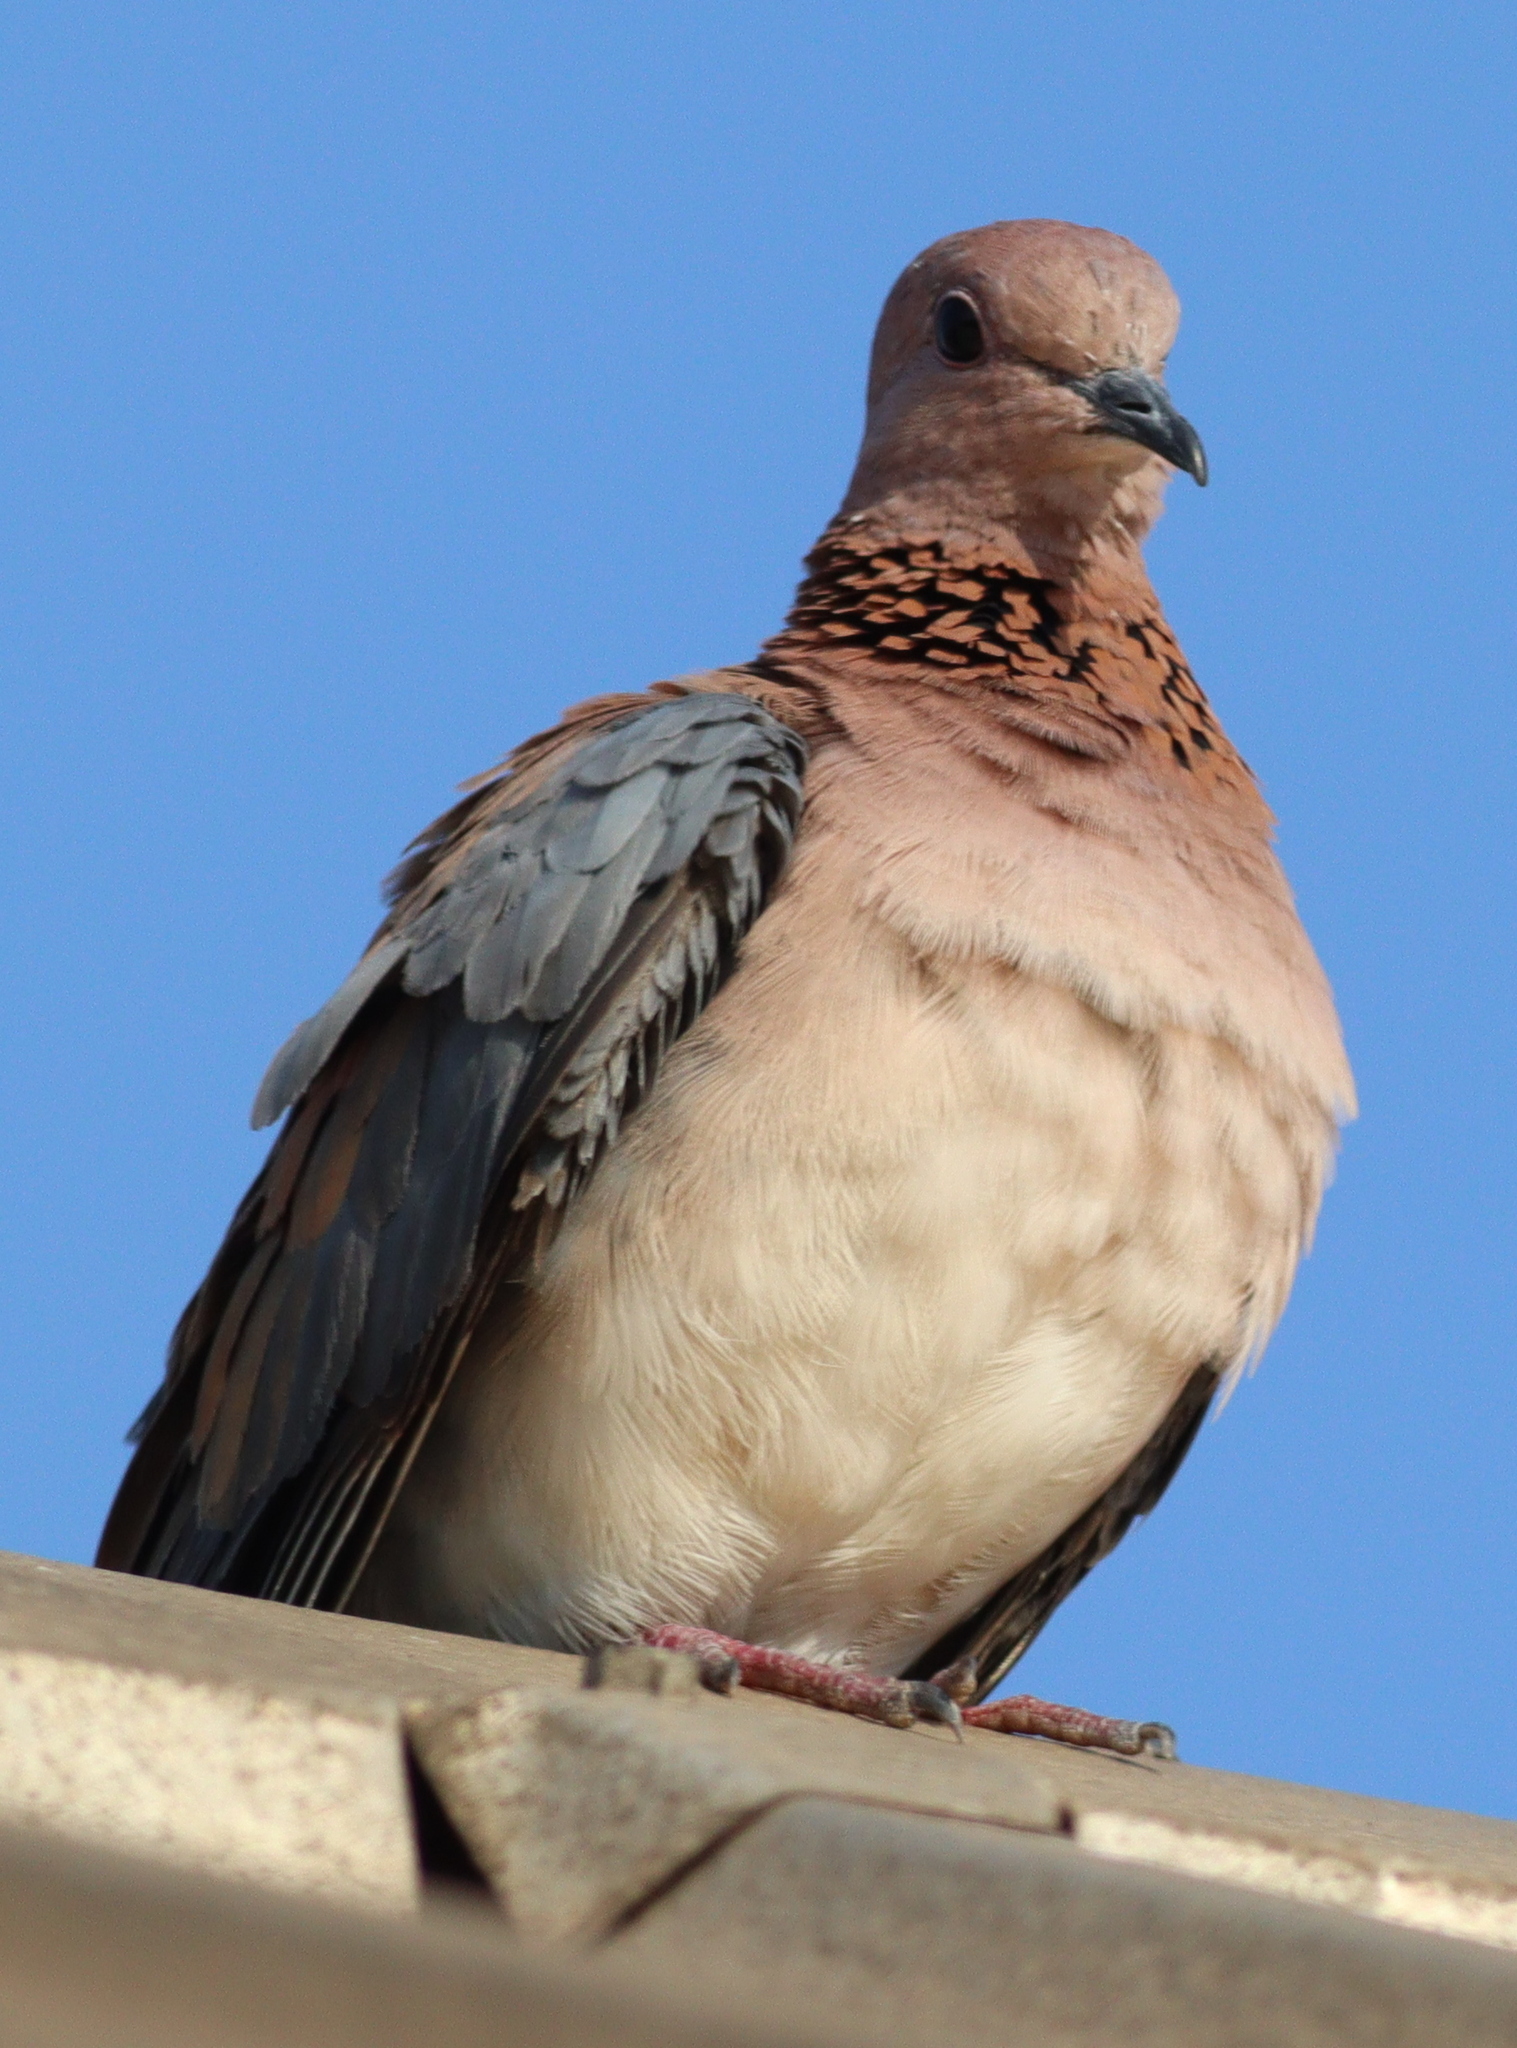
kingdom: Animalia
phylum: Chordata
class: Aves
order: Columbiformes
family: Columbidae
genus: Spilopelia
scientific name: Spilopelia senegalensis
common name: Laughing dove
